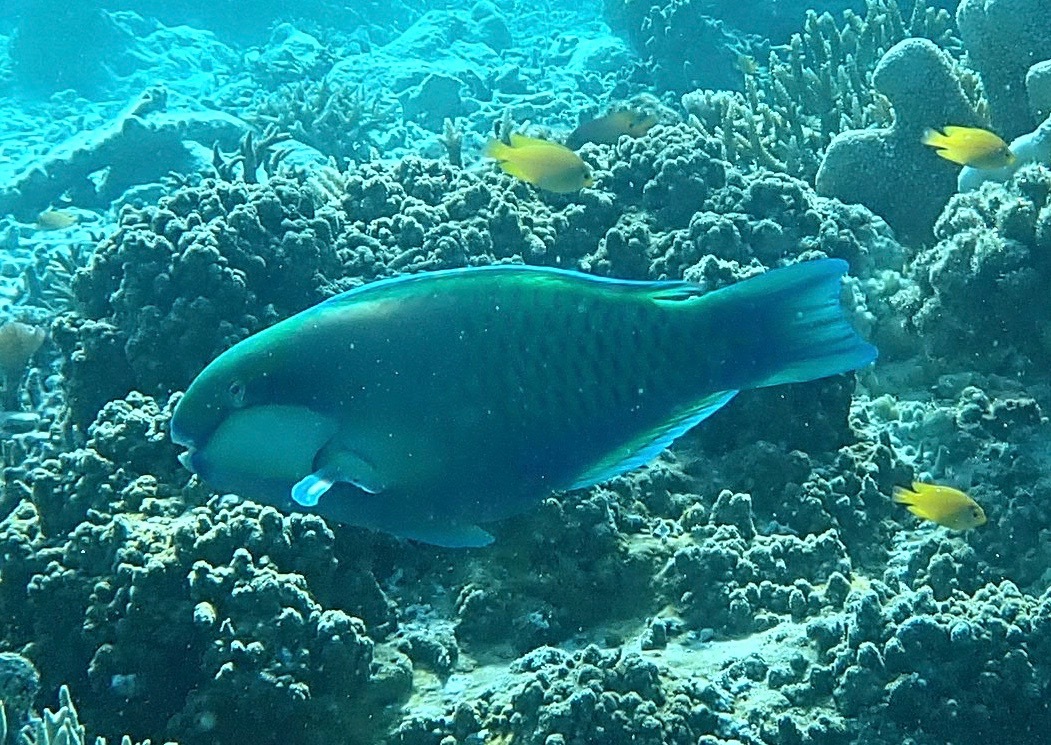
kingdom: Animalia
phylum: Chordata
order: Perciformes
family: Scaridae
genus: Chlorurus
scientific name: Chlorurus bleekeri
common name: Bleeker's parrotfish
